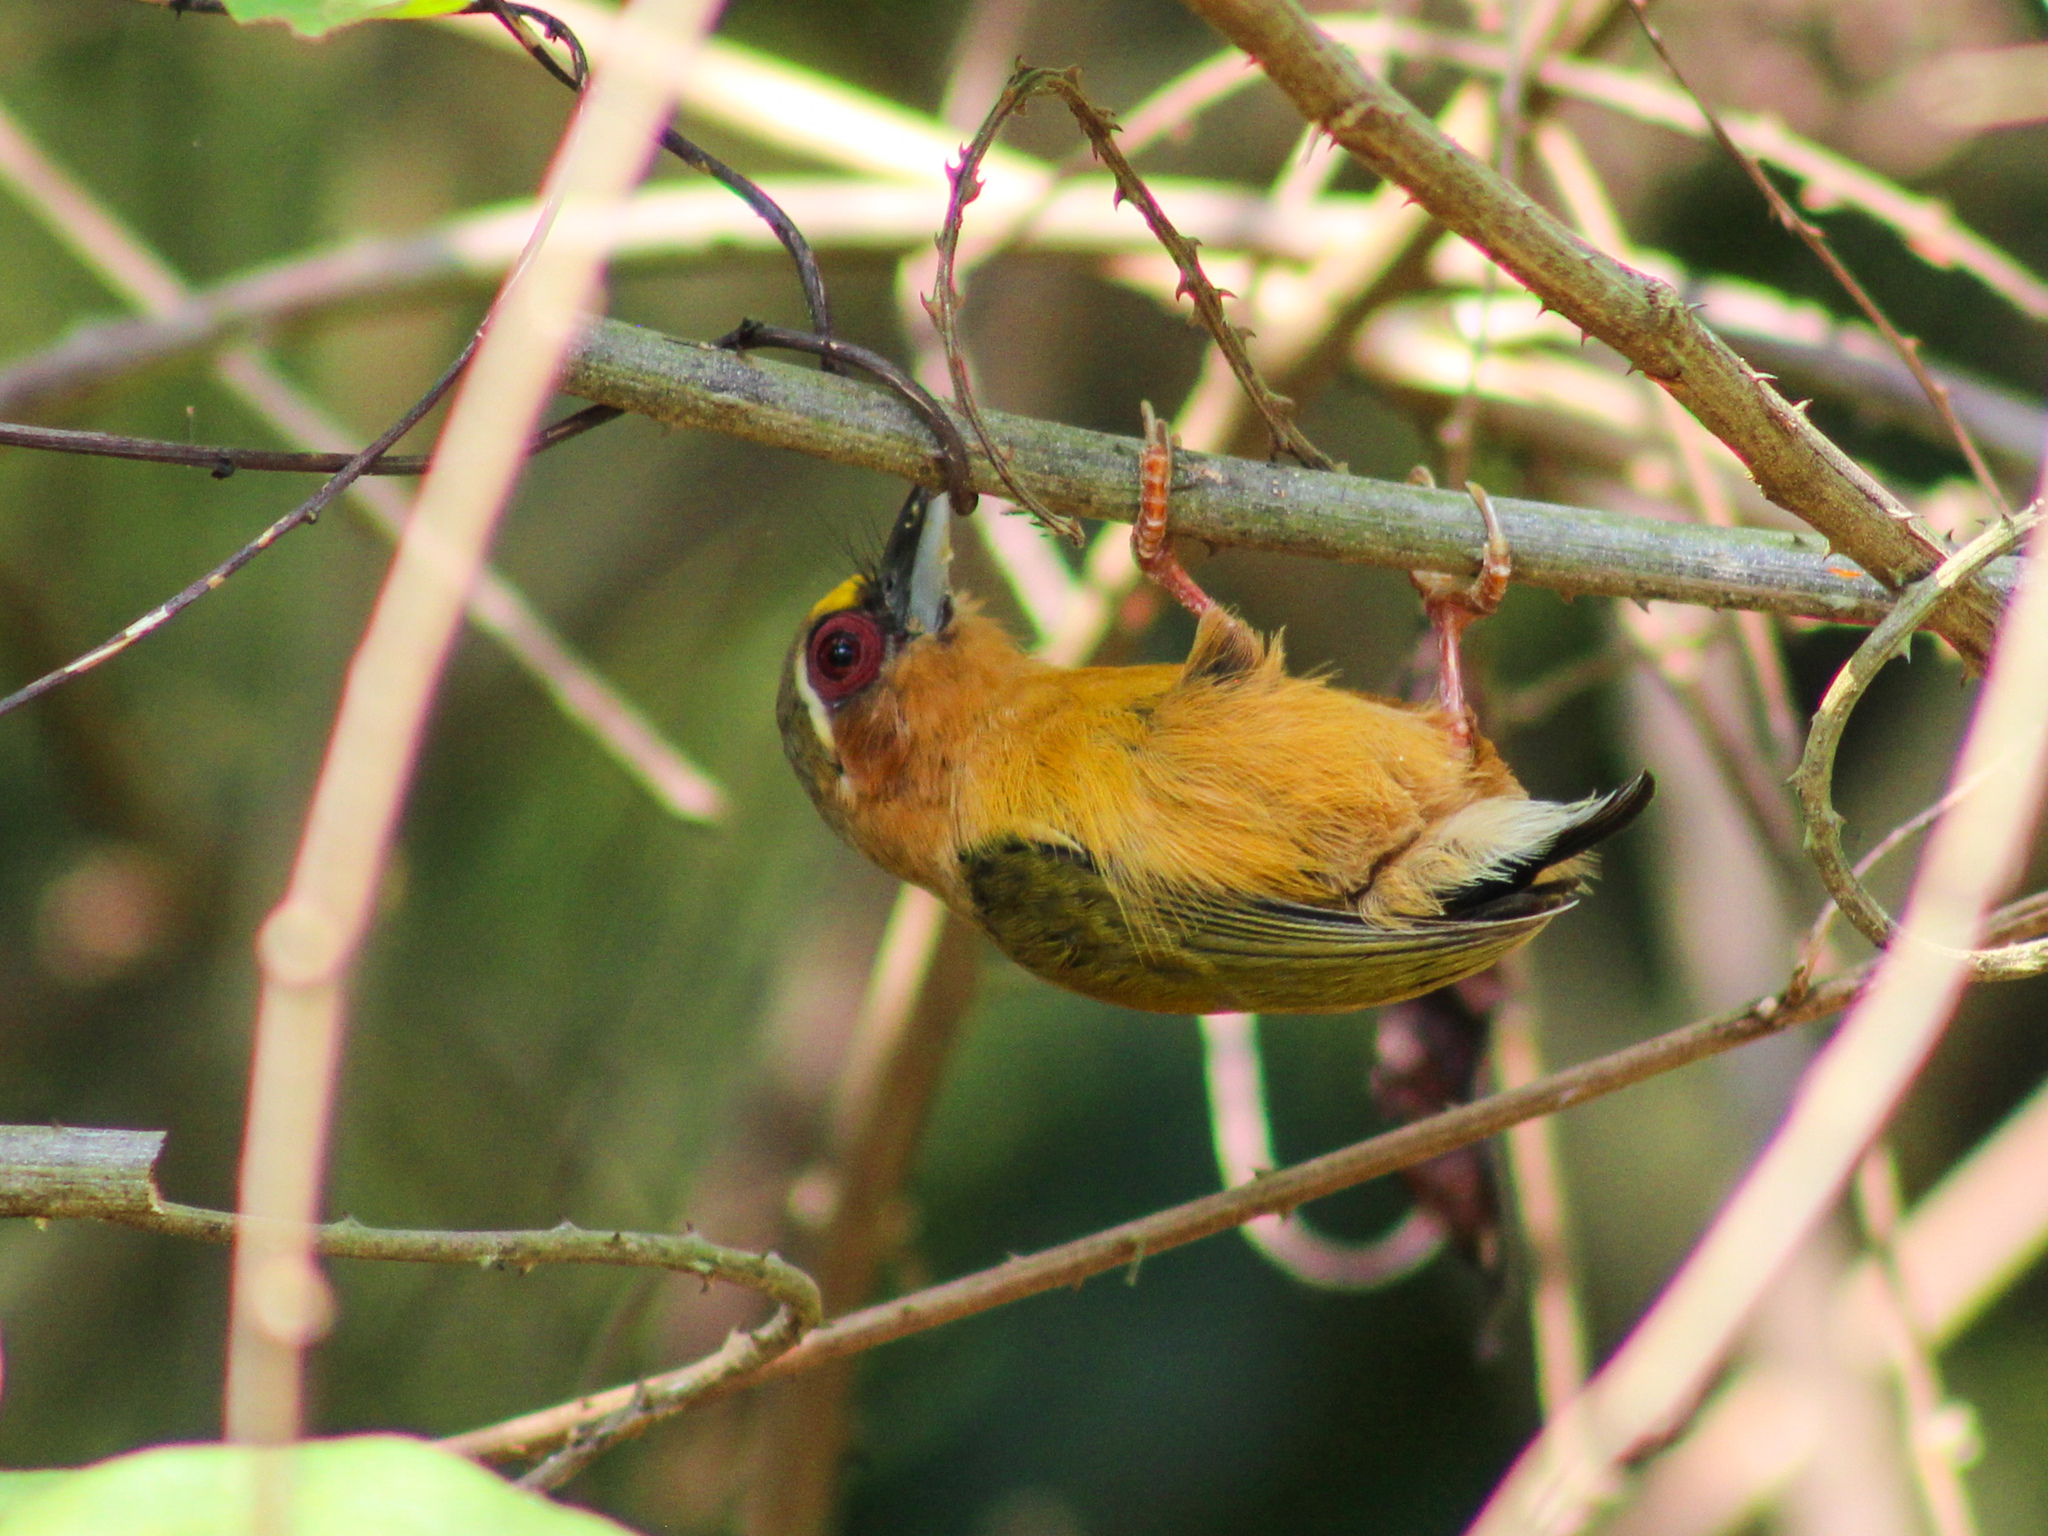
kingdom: Animalia
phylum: Chordata
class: Aves
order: Piciformes
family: Picidae
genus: Sasia
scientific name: Sasia ochracea
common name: White-browed piculet
